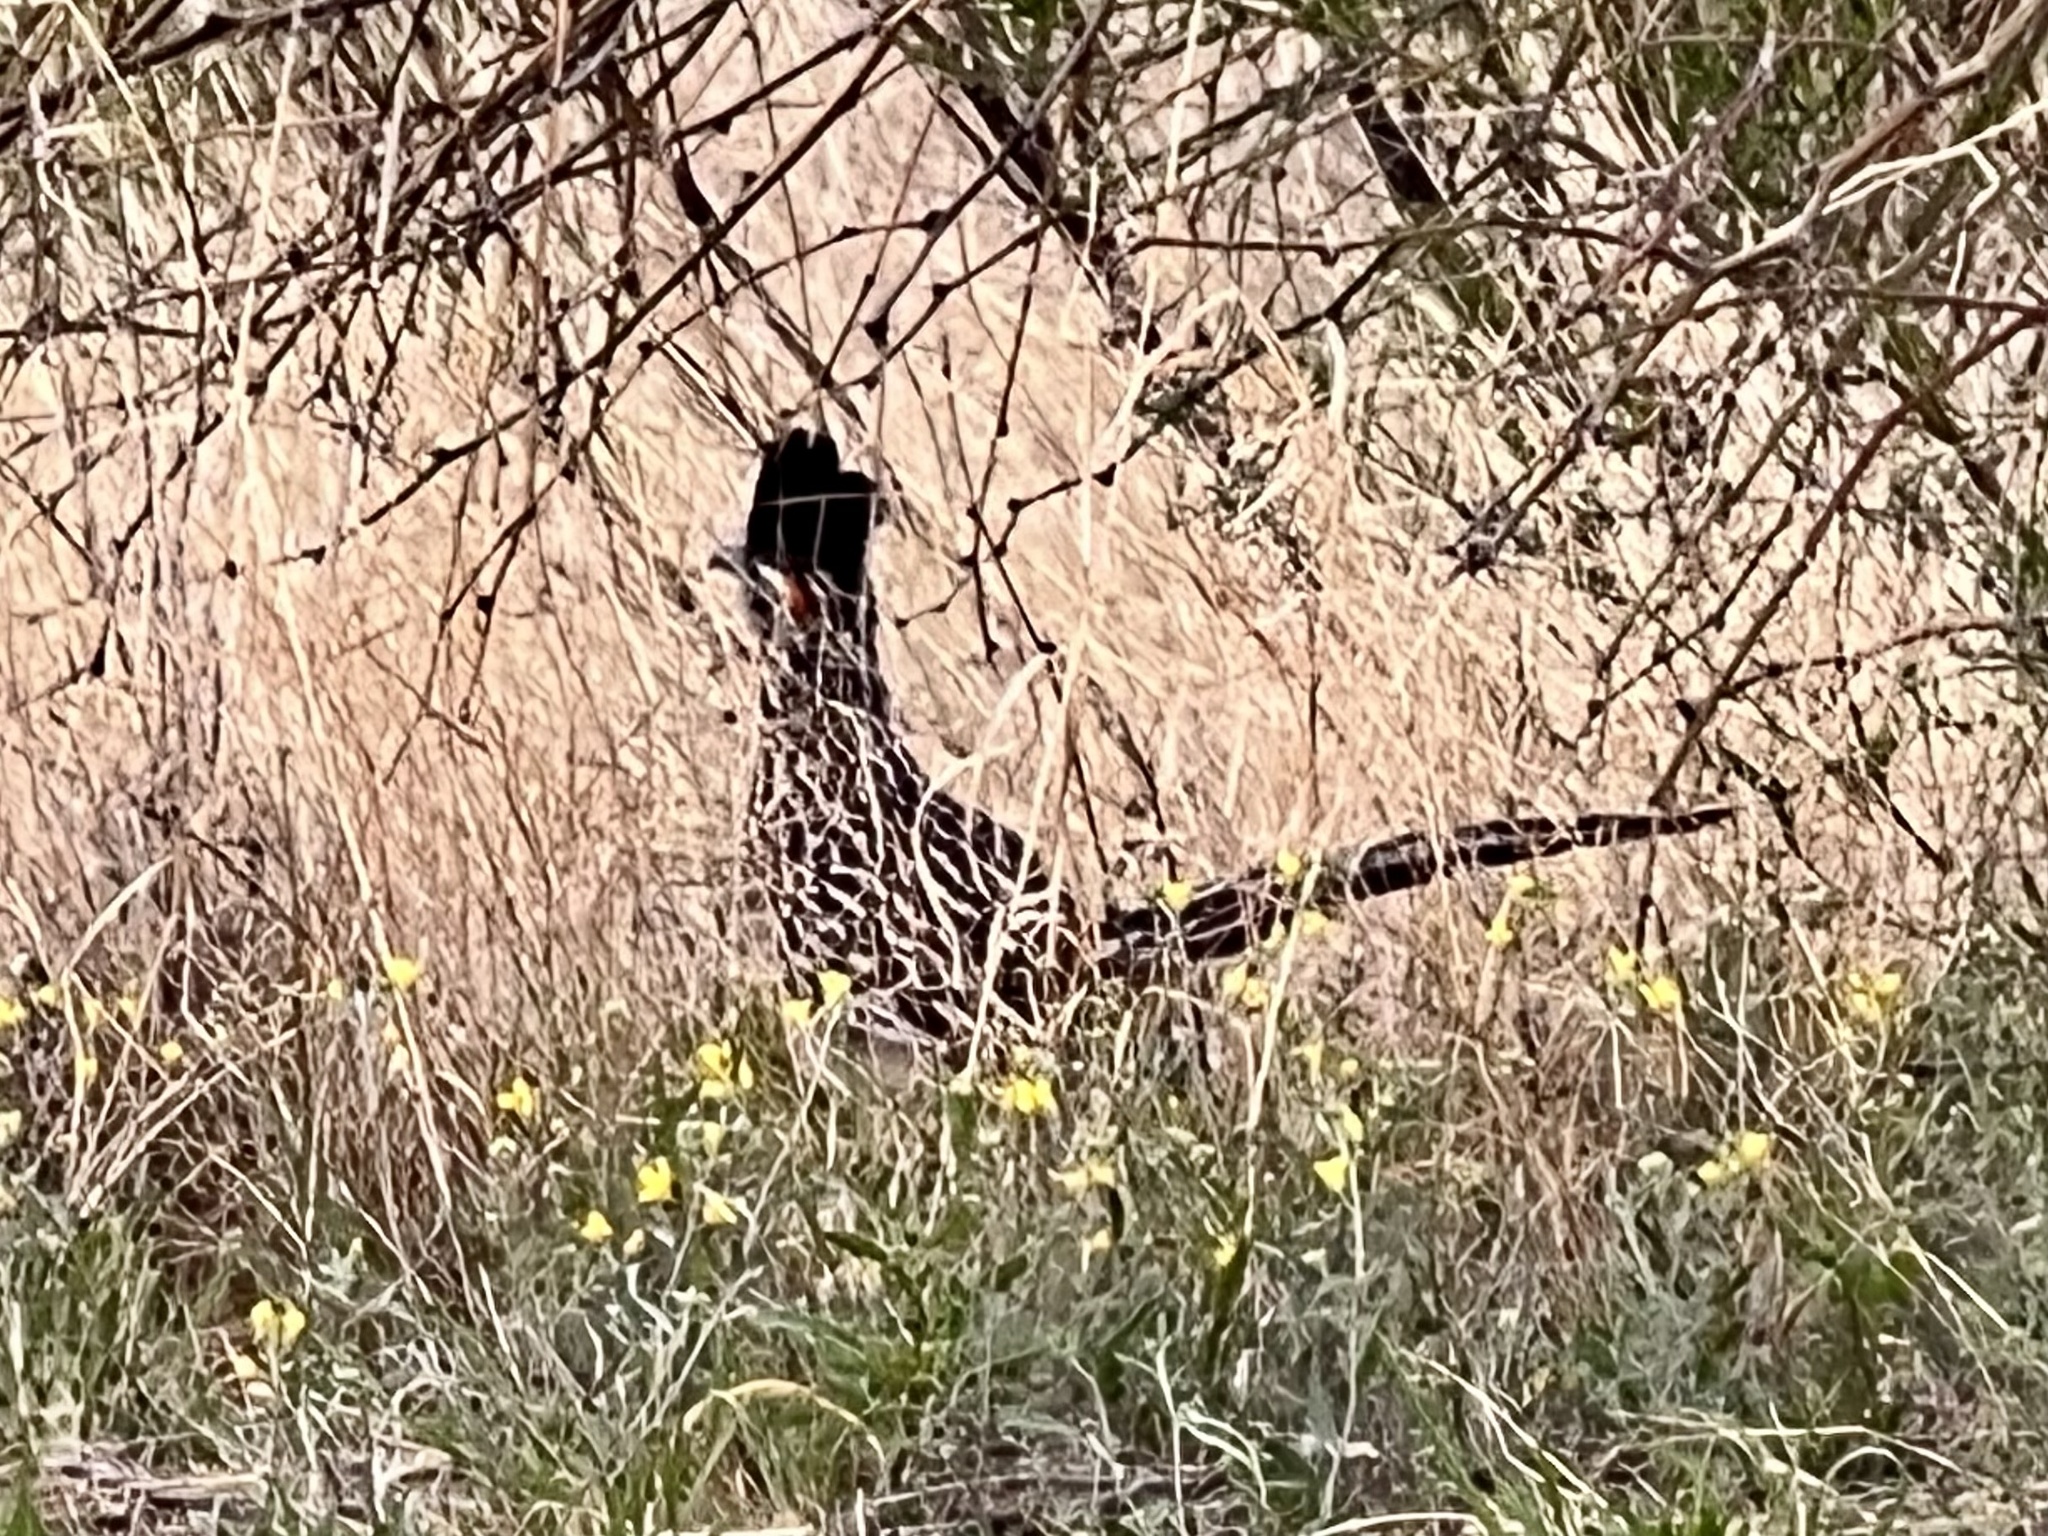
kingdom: Animalia
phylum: Chordata
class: Aves
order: Cuculiformes
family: Cuculidae
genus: Geococcyx
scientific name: Geococcyx californianus
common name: Greater roadrunner
